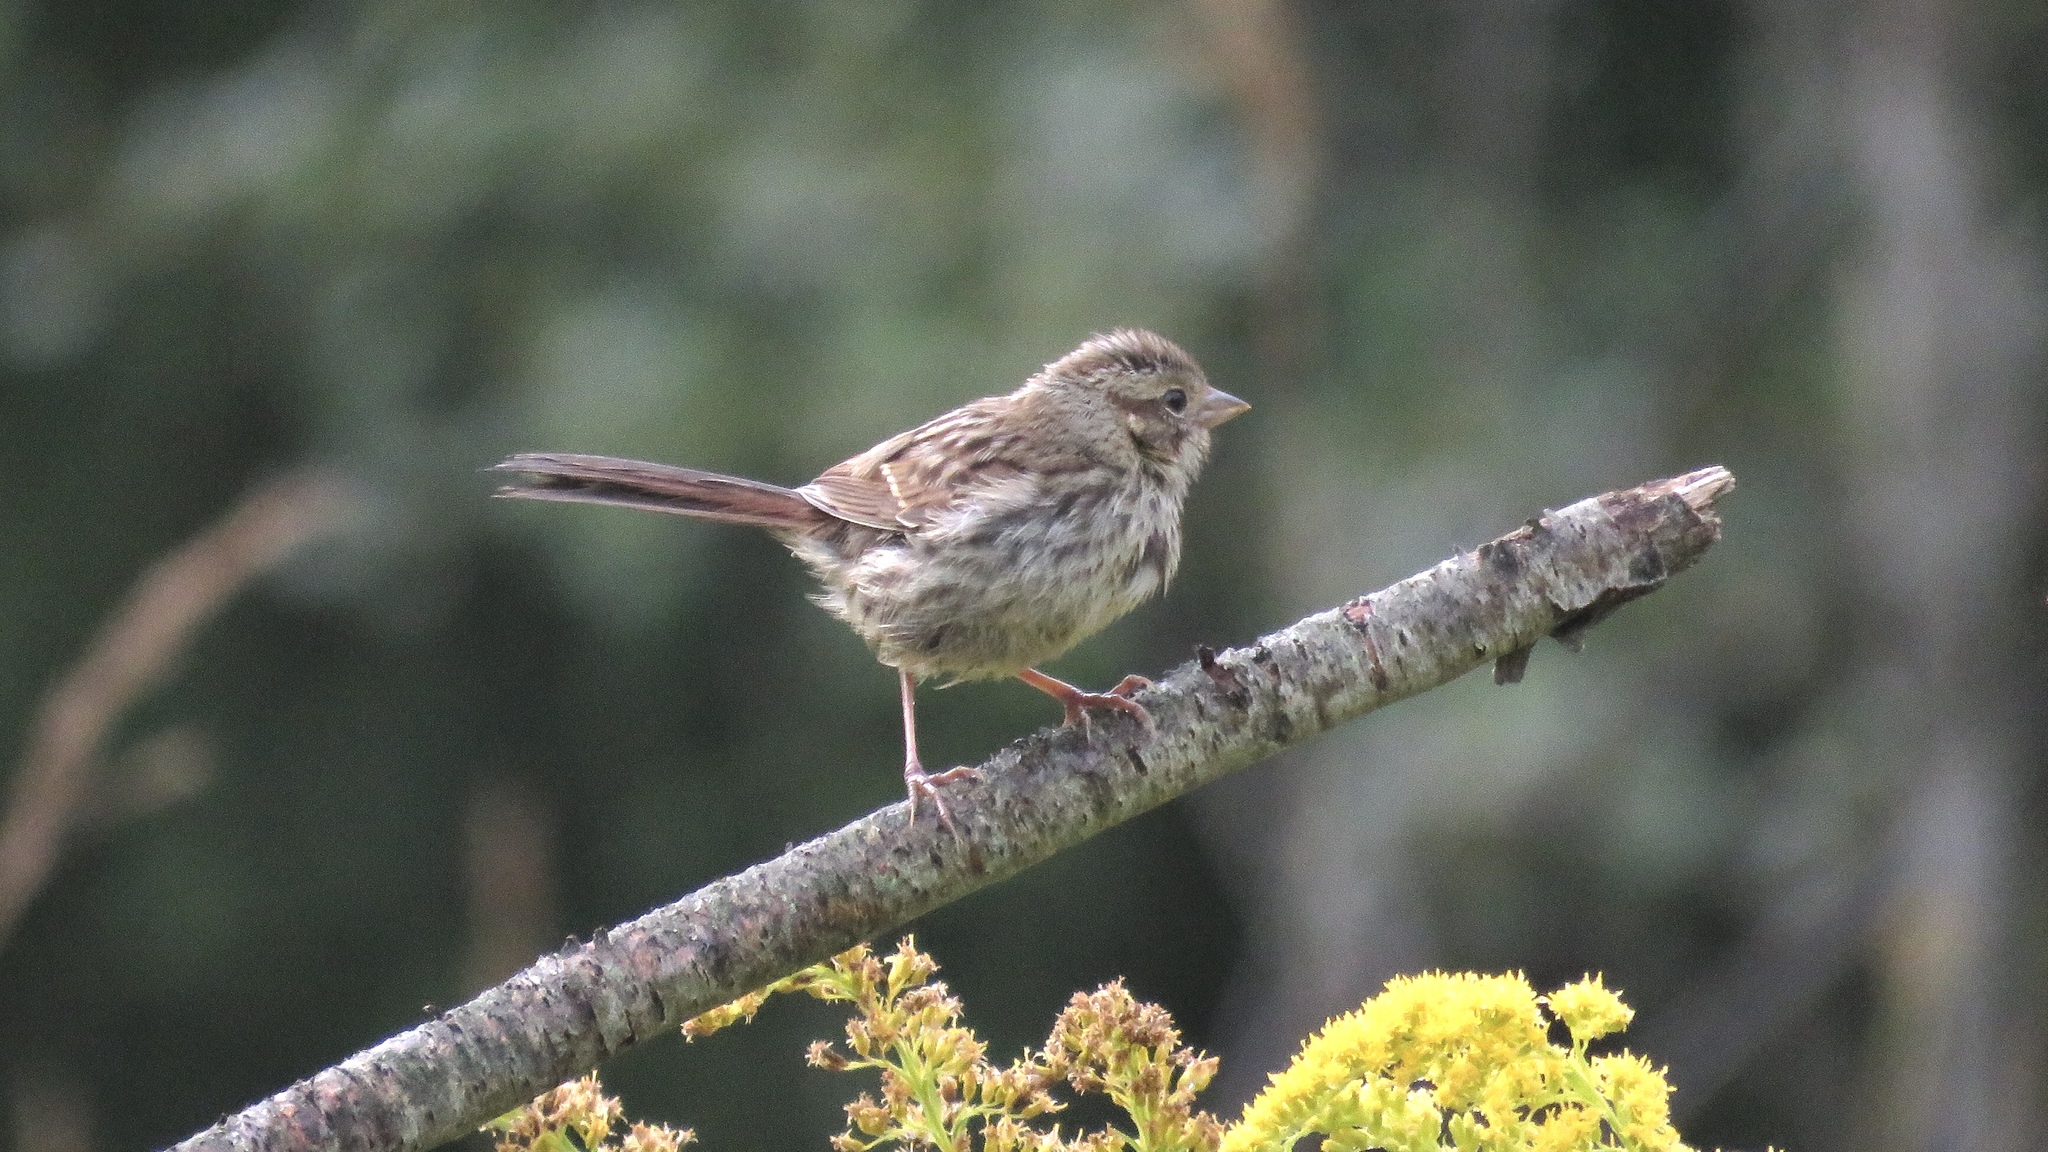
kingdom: Animalia
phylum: Chordata
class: Aves
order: Passeriformes
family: Passerellidae
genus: Melospiza
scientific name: Melospiza melodia
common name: Song sparrow
